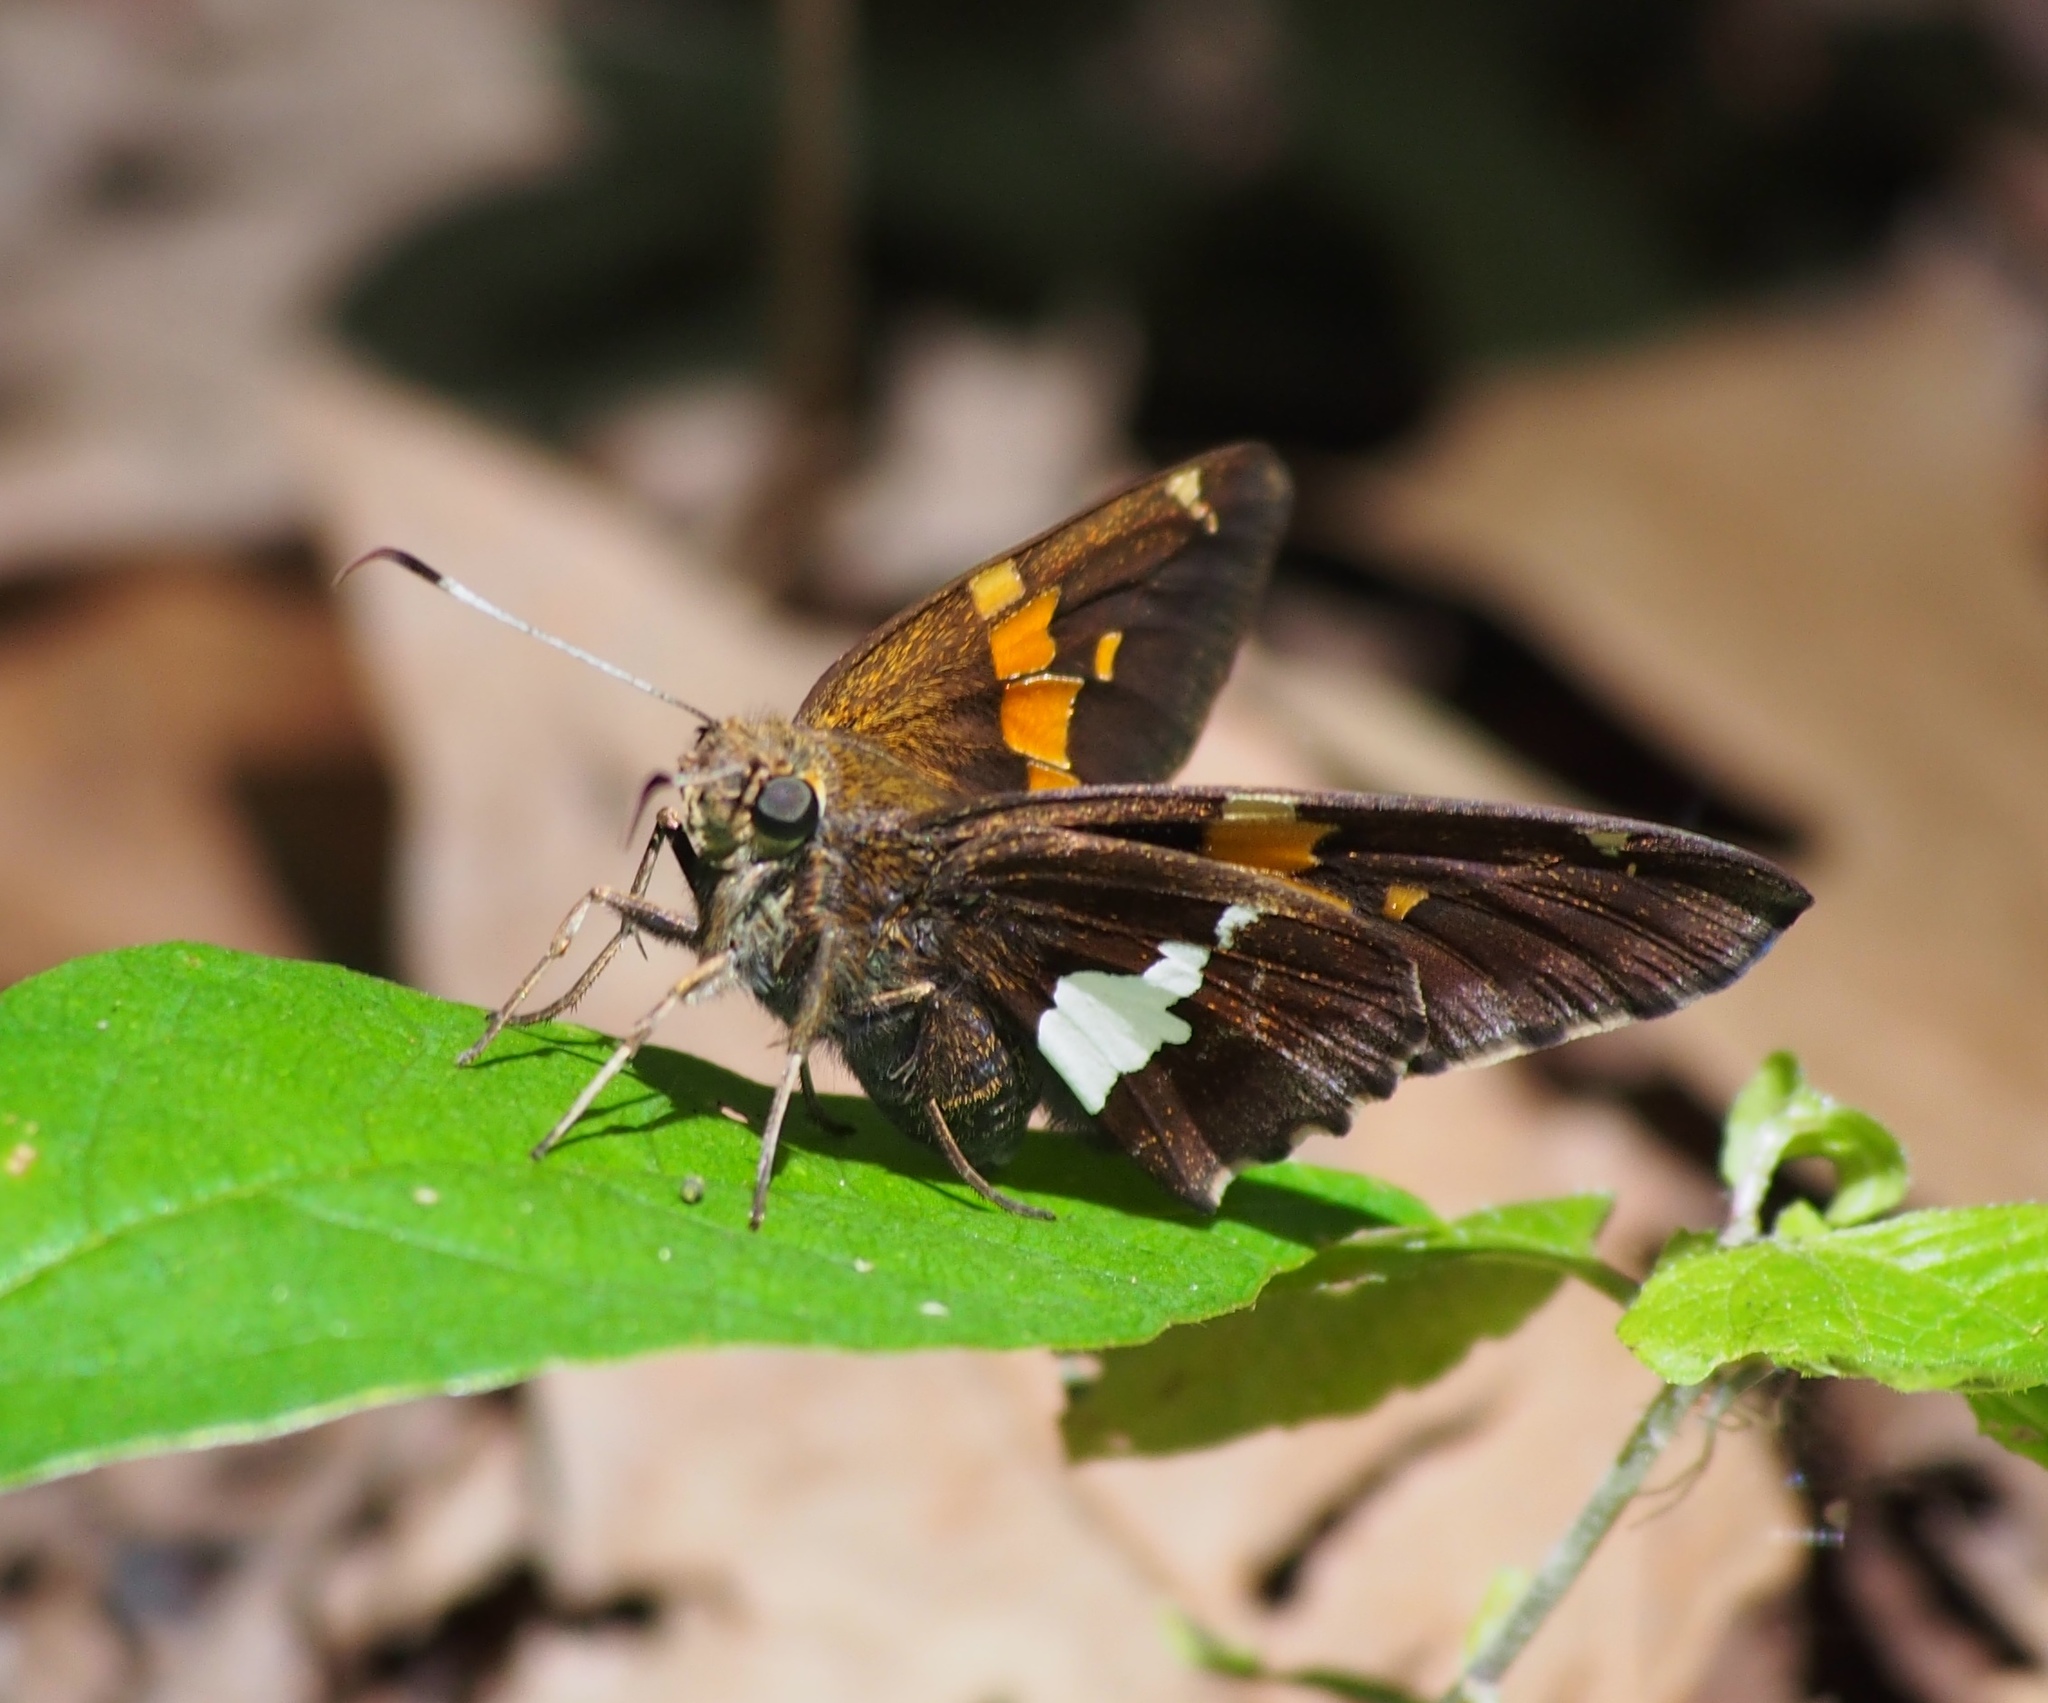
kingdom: Animalia
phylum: Arthropoda
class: Insecta
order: Lepidoptera
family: Hesperiidae
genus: Epargyreus
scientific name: Epargyreus clarus
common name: Silver-spotted skipper
